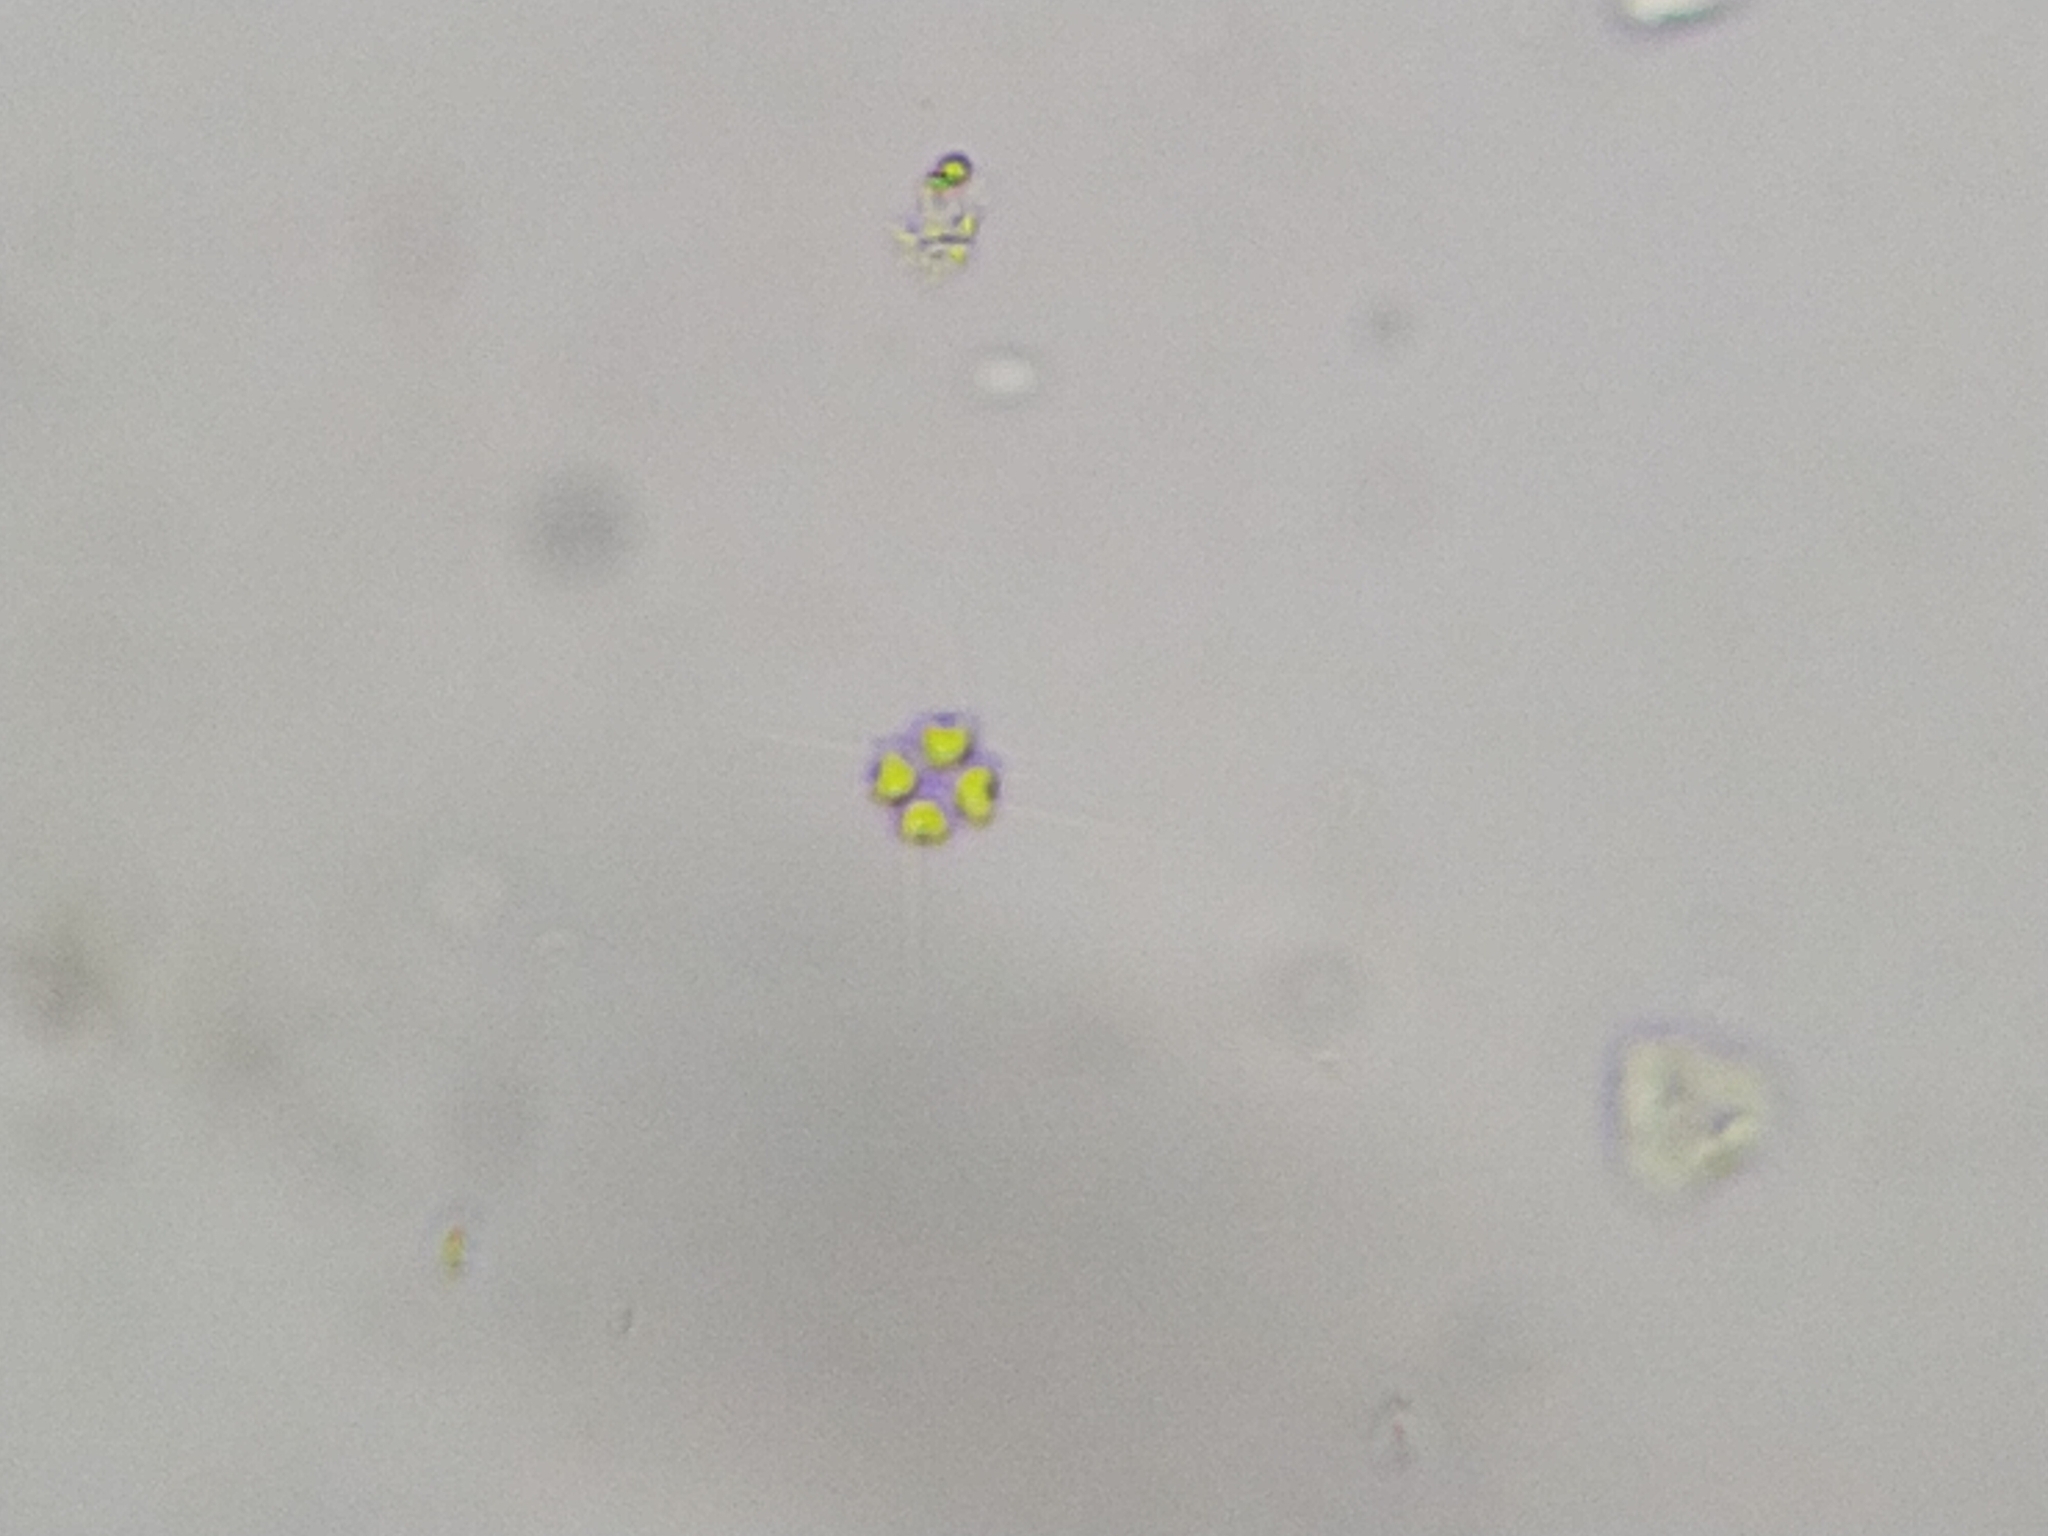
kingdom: Plantae
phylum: Chlorophyta
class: Chlorophyceae
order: Sphaeropleales
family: Scenedesmaceae
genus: Tetrastrum
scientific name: Tetrastrum heteracanthum
